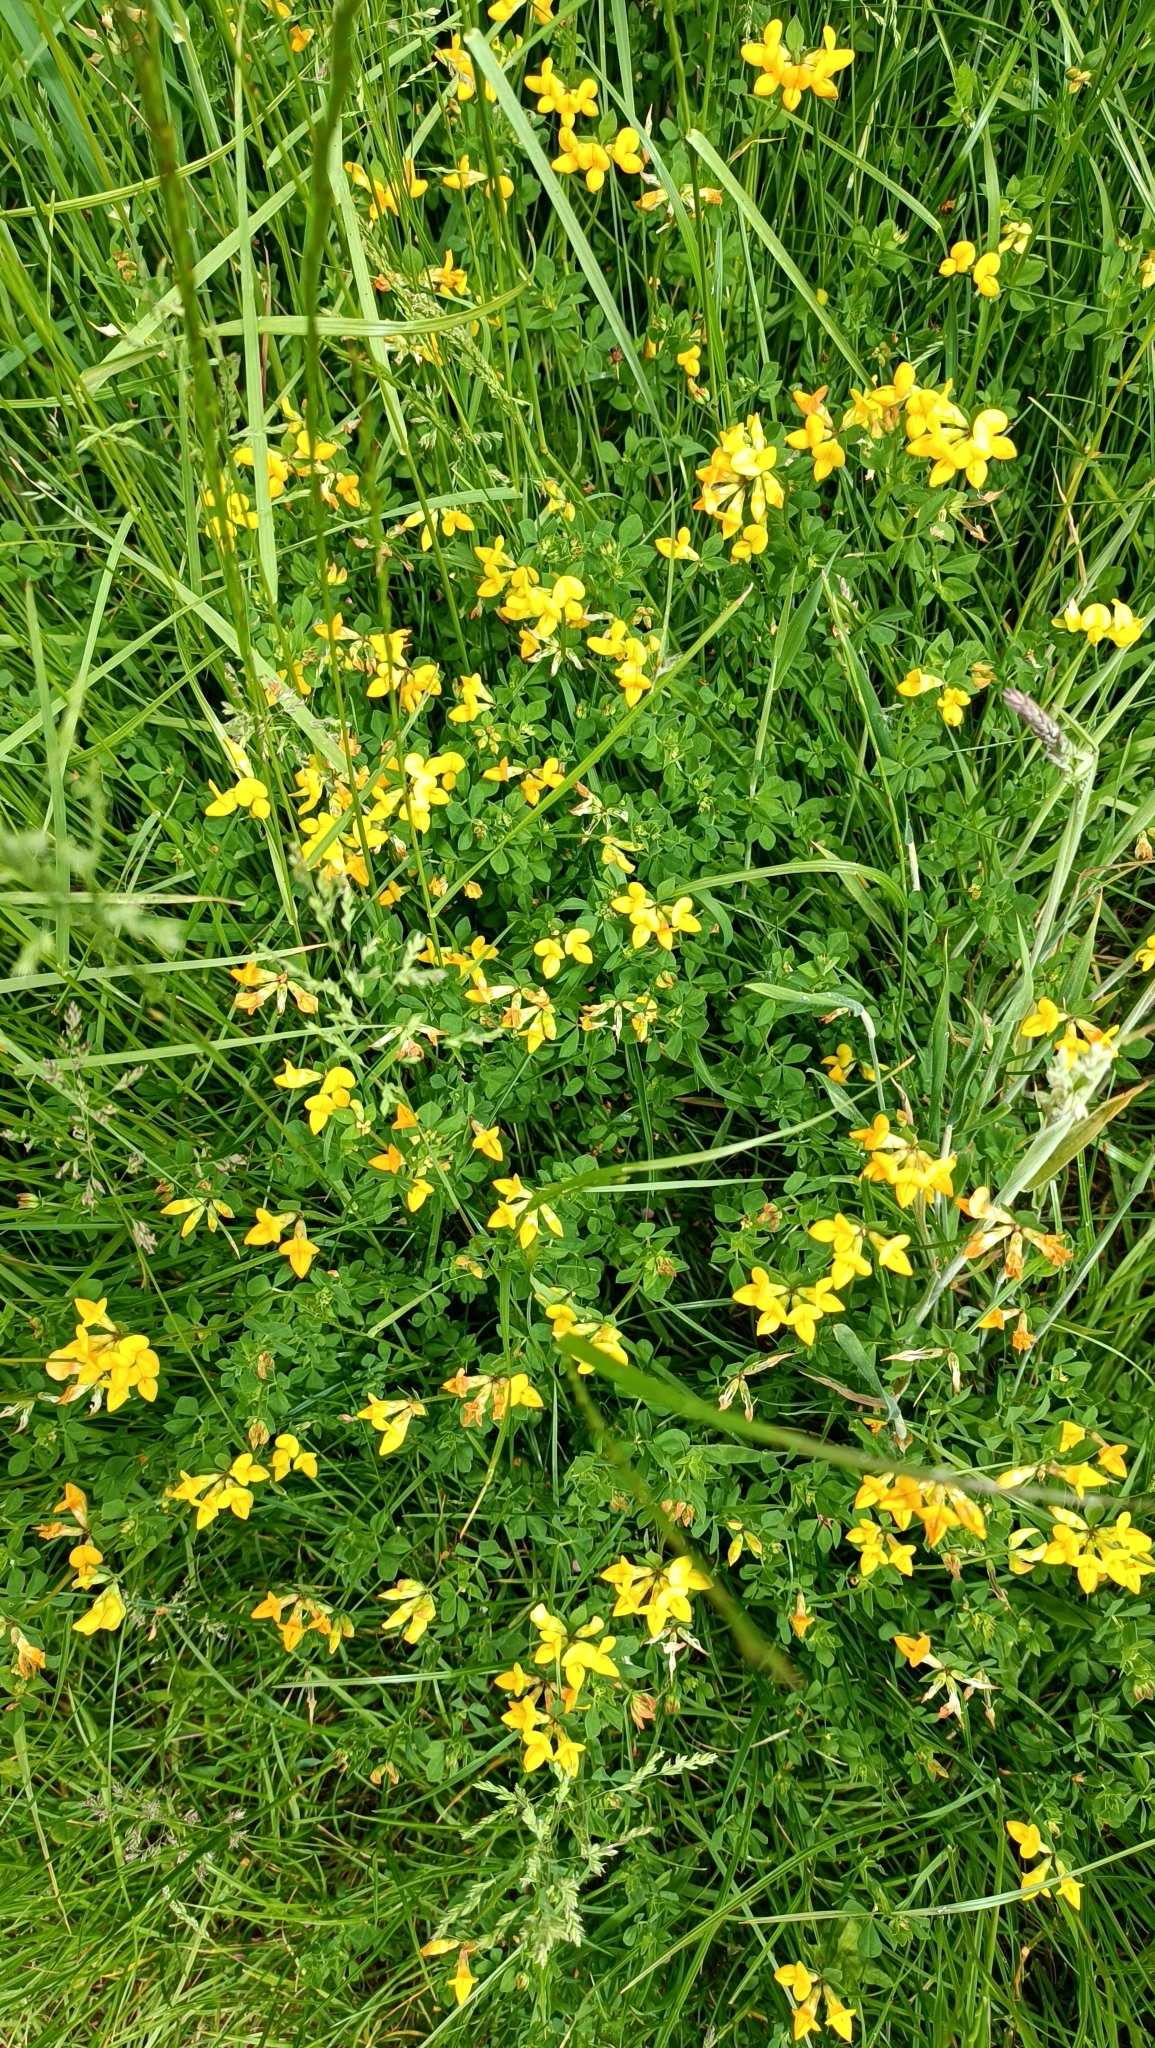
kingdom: Plantae
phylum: Tracheophyta
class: Magnoliopsida
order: Fabales
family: Fabaceae
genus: Lotus
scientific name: Lotus corniculatus
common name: Common bird's-foot-trefoil
